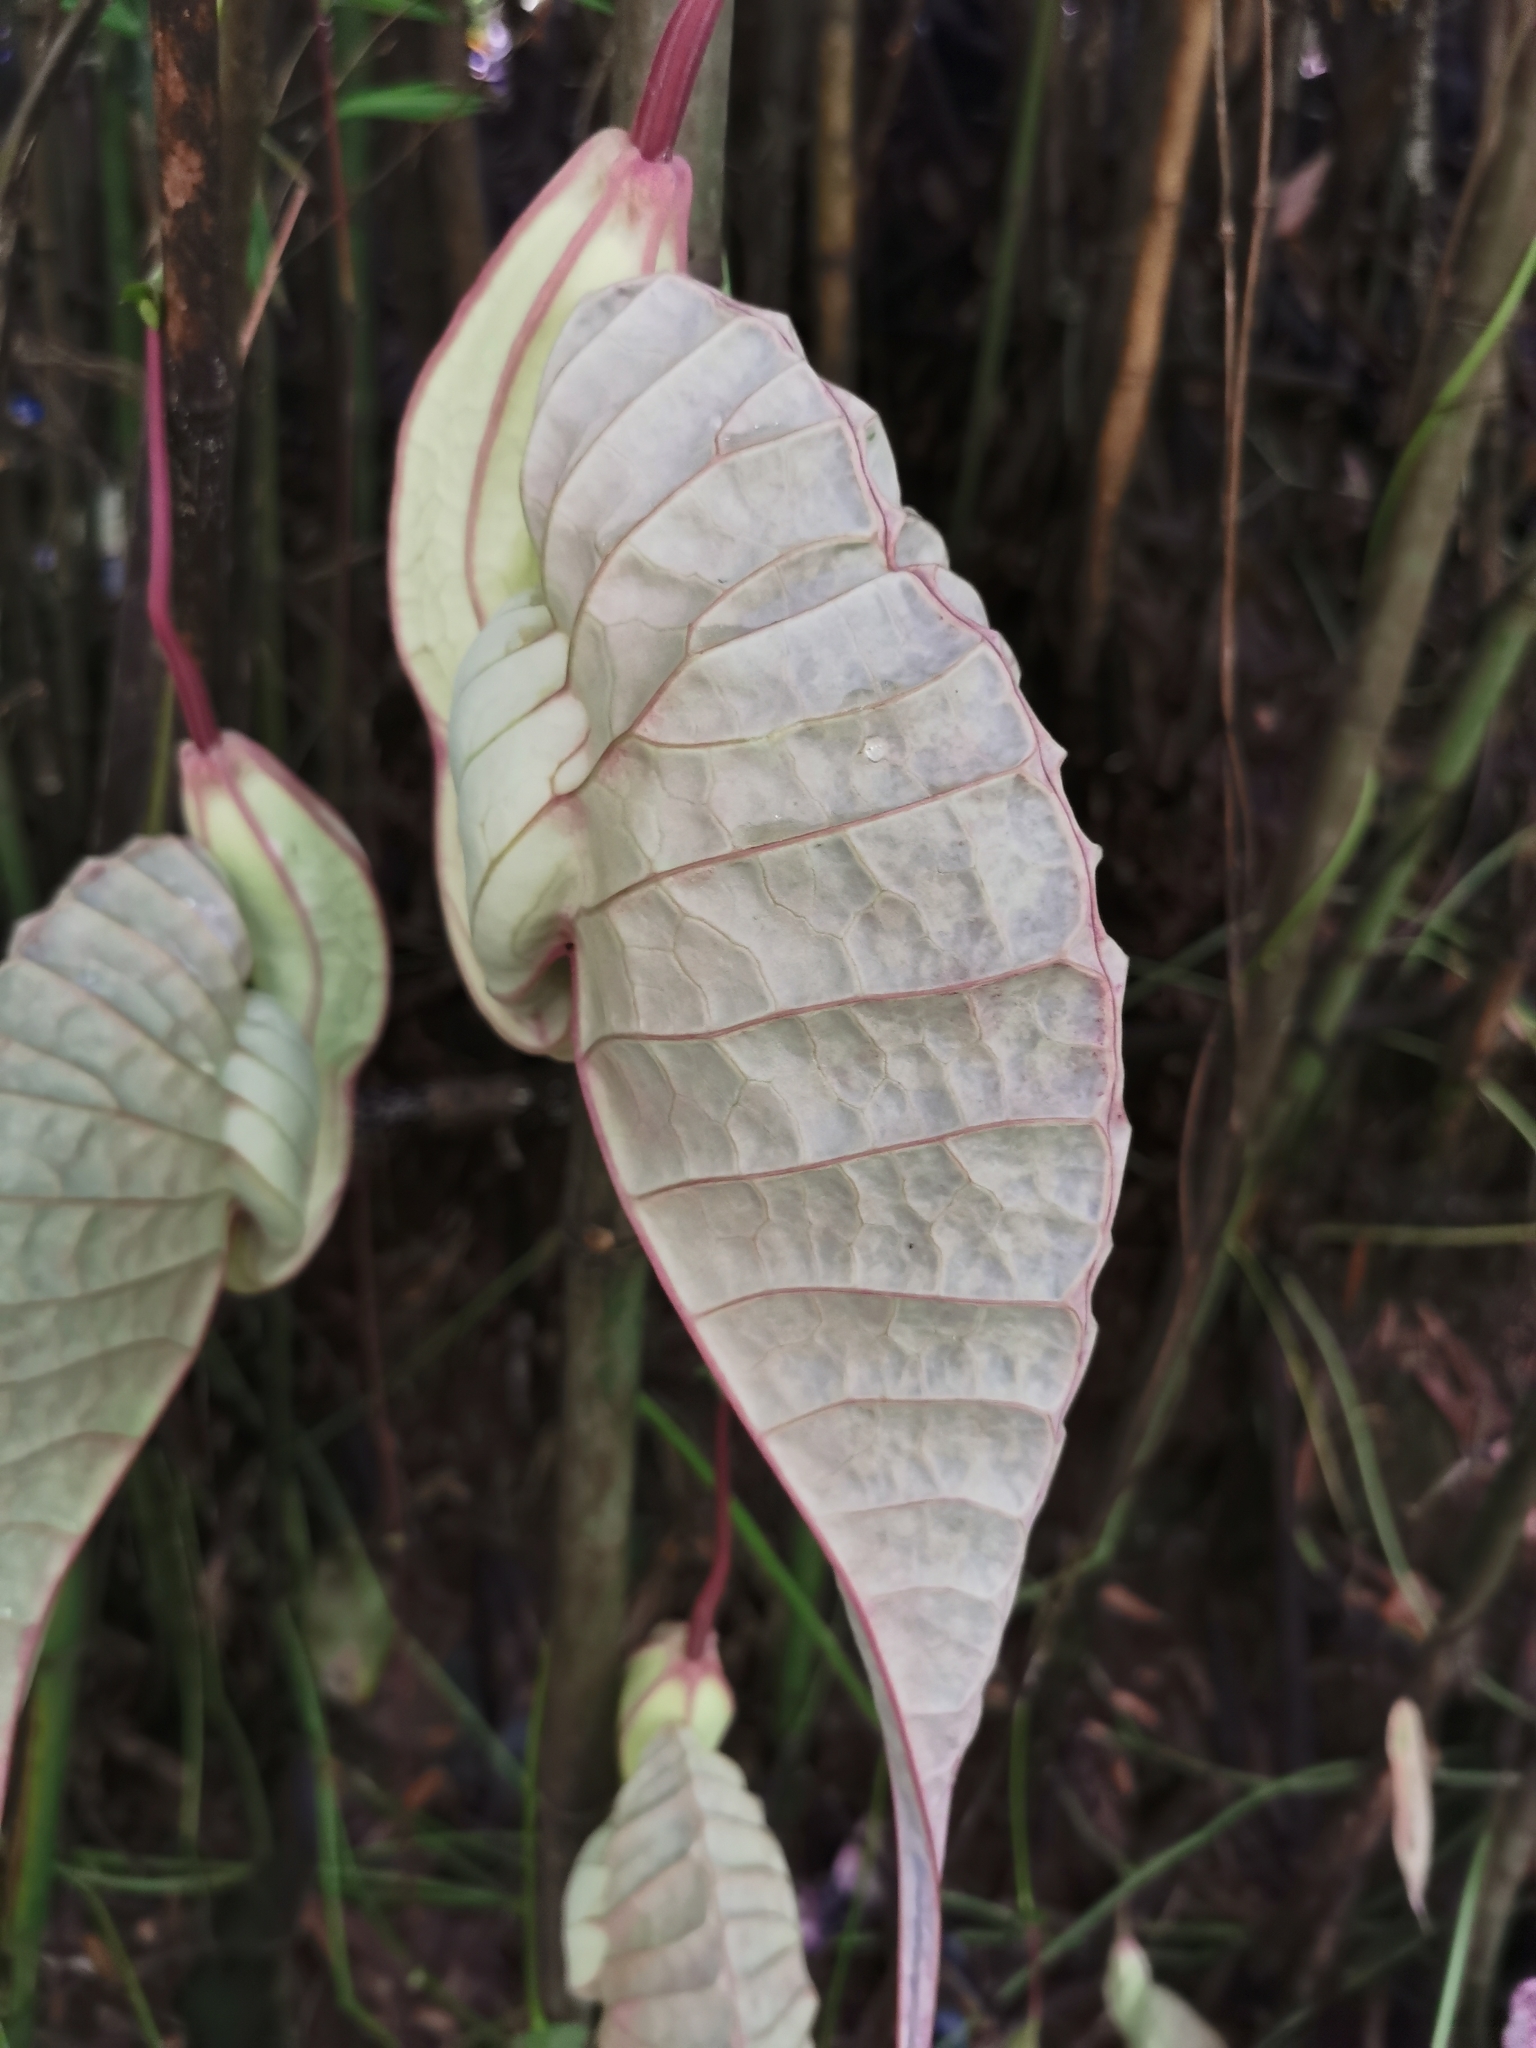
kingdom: Plantae
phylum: Tracheophyta
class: Magnoliopsida
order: Piperales
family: Aristolochiaceae
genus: Aristolochia
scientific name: Aristolochia grandiflora
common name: Pelicanflower
